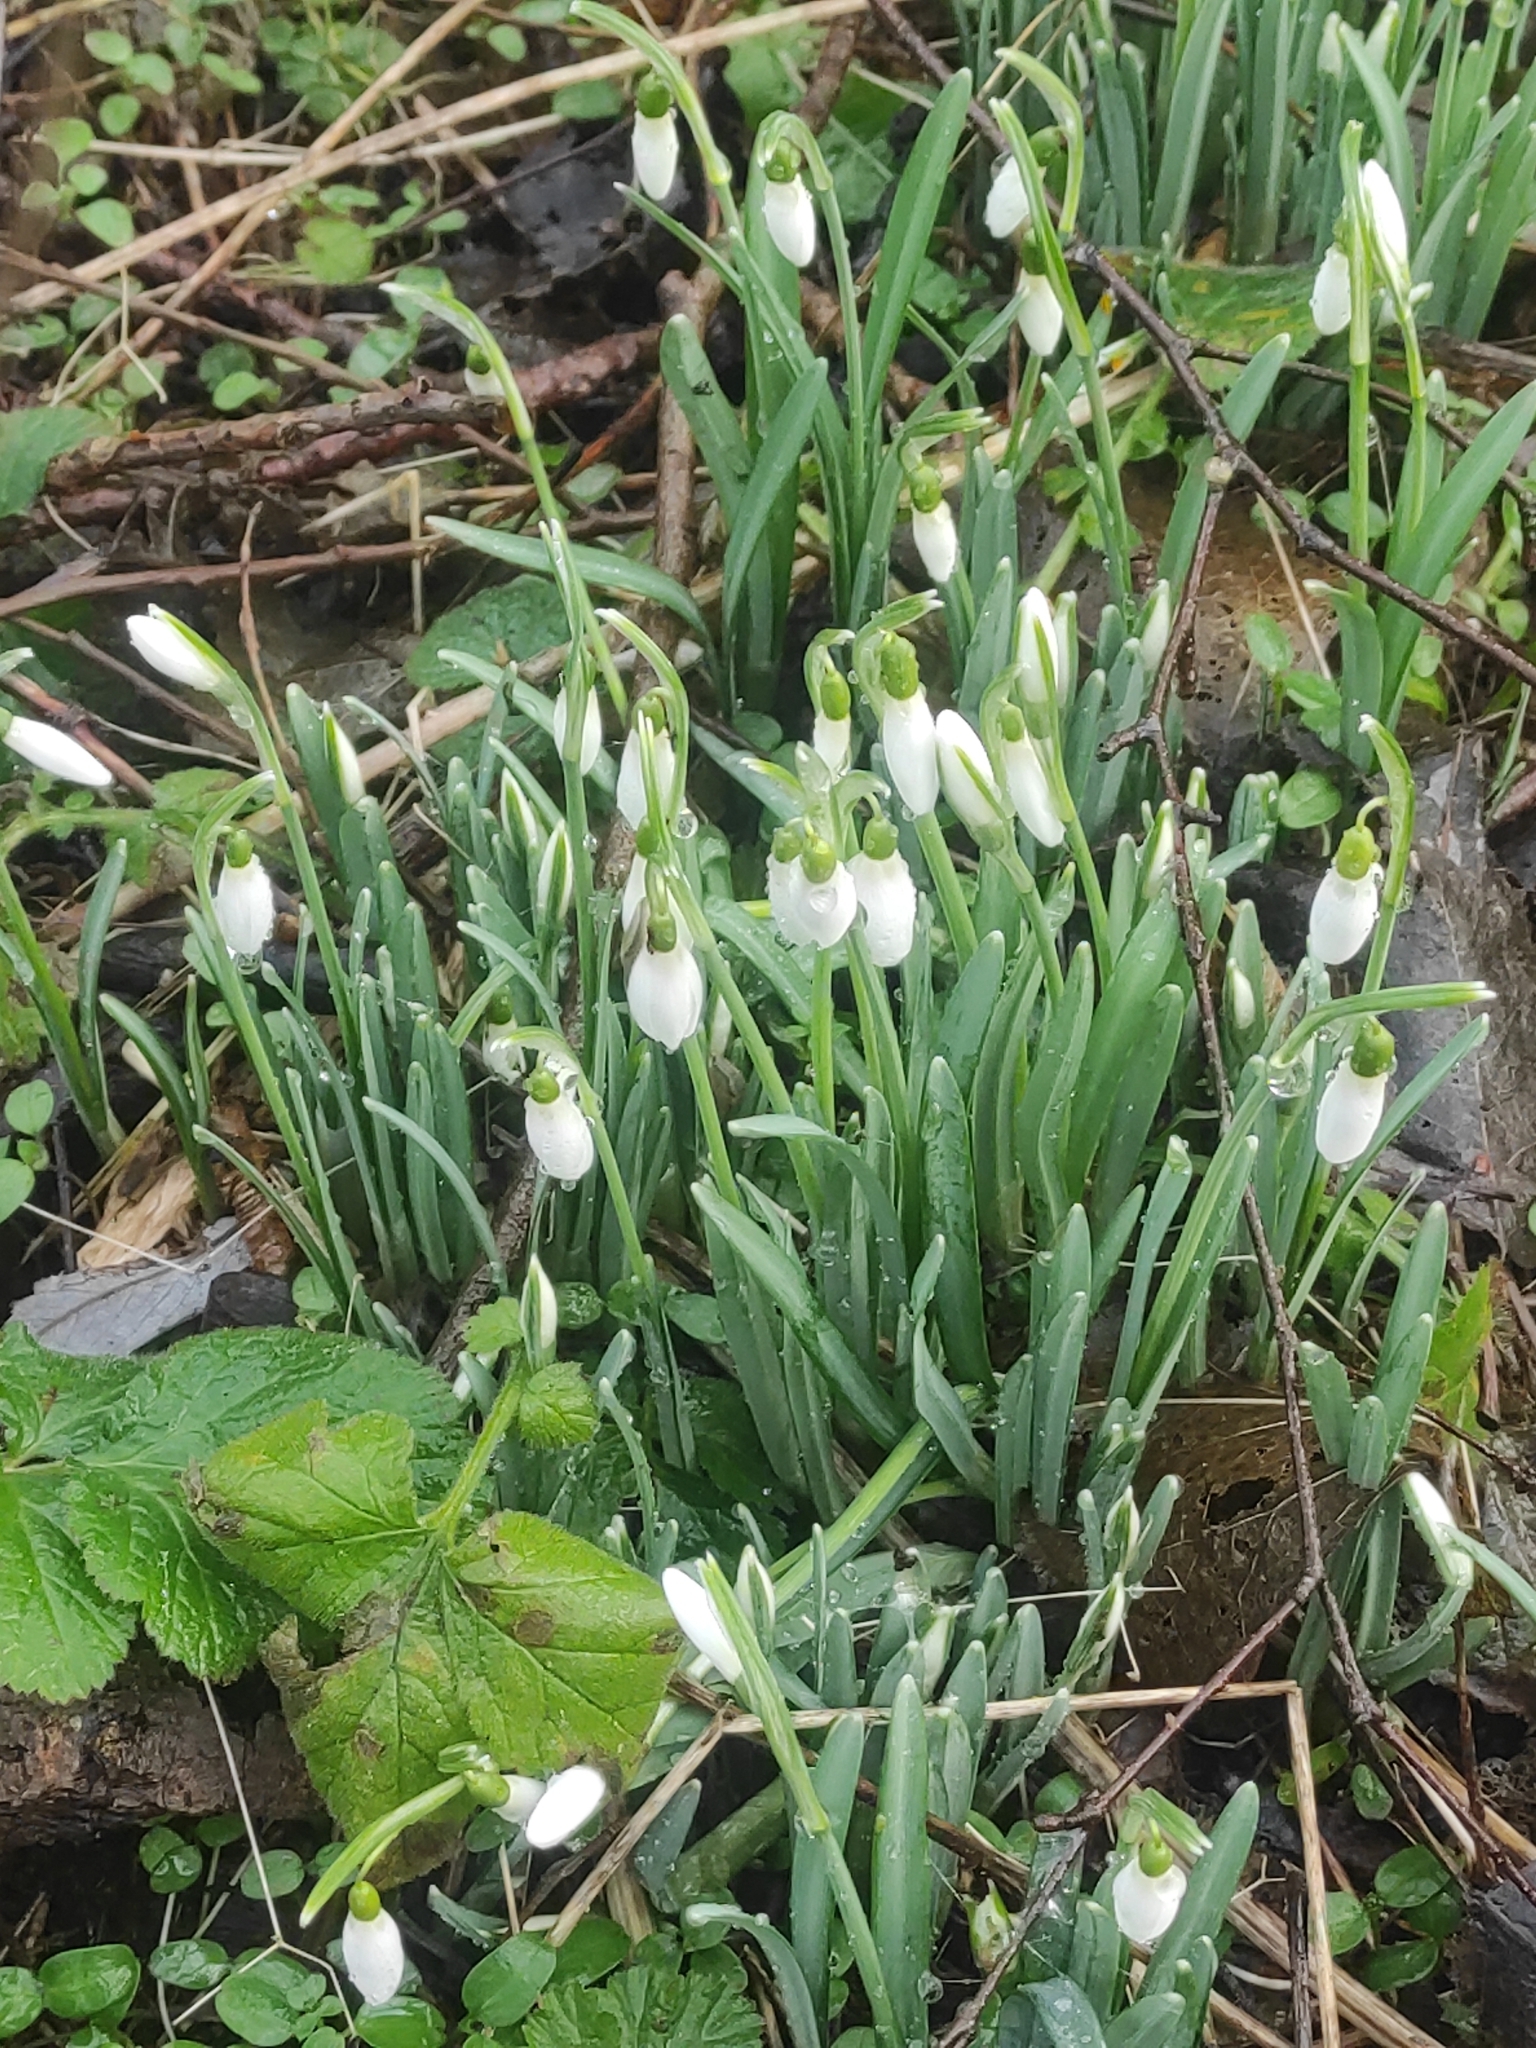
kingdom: Plantae
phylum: Tracheophyta
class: Liliopsida
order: Asparagales
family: Amaryllidaceae
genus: Galanthus
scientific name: Galanthus nivalis
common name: Snowdrop
